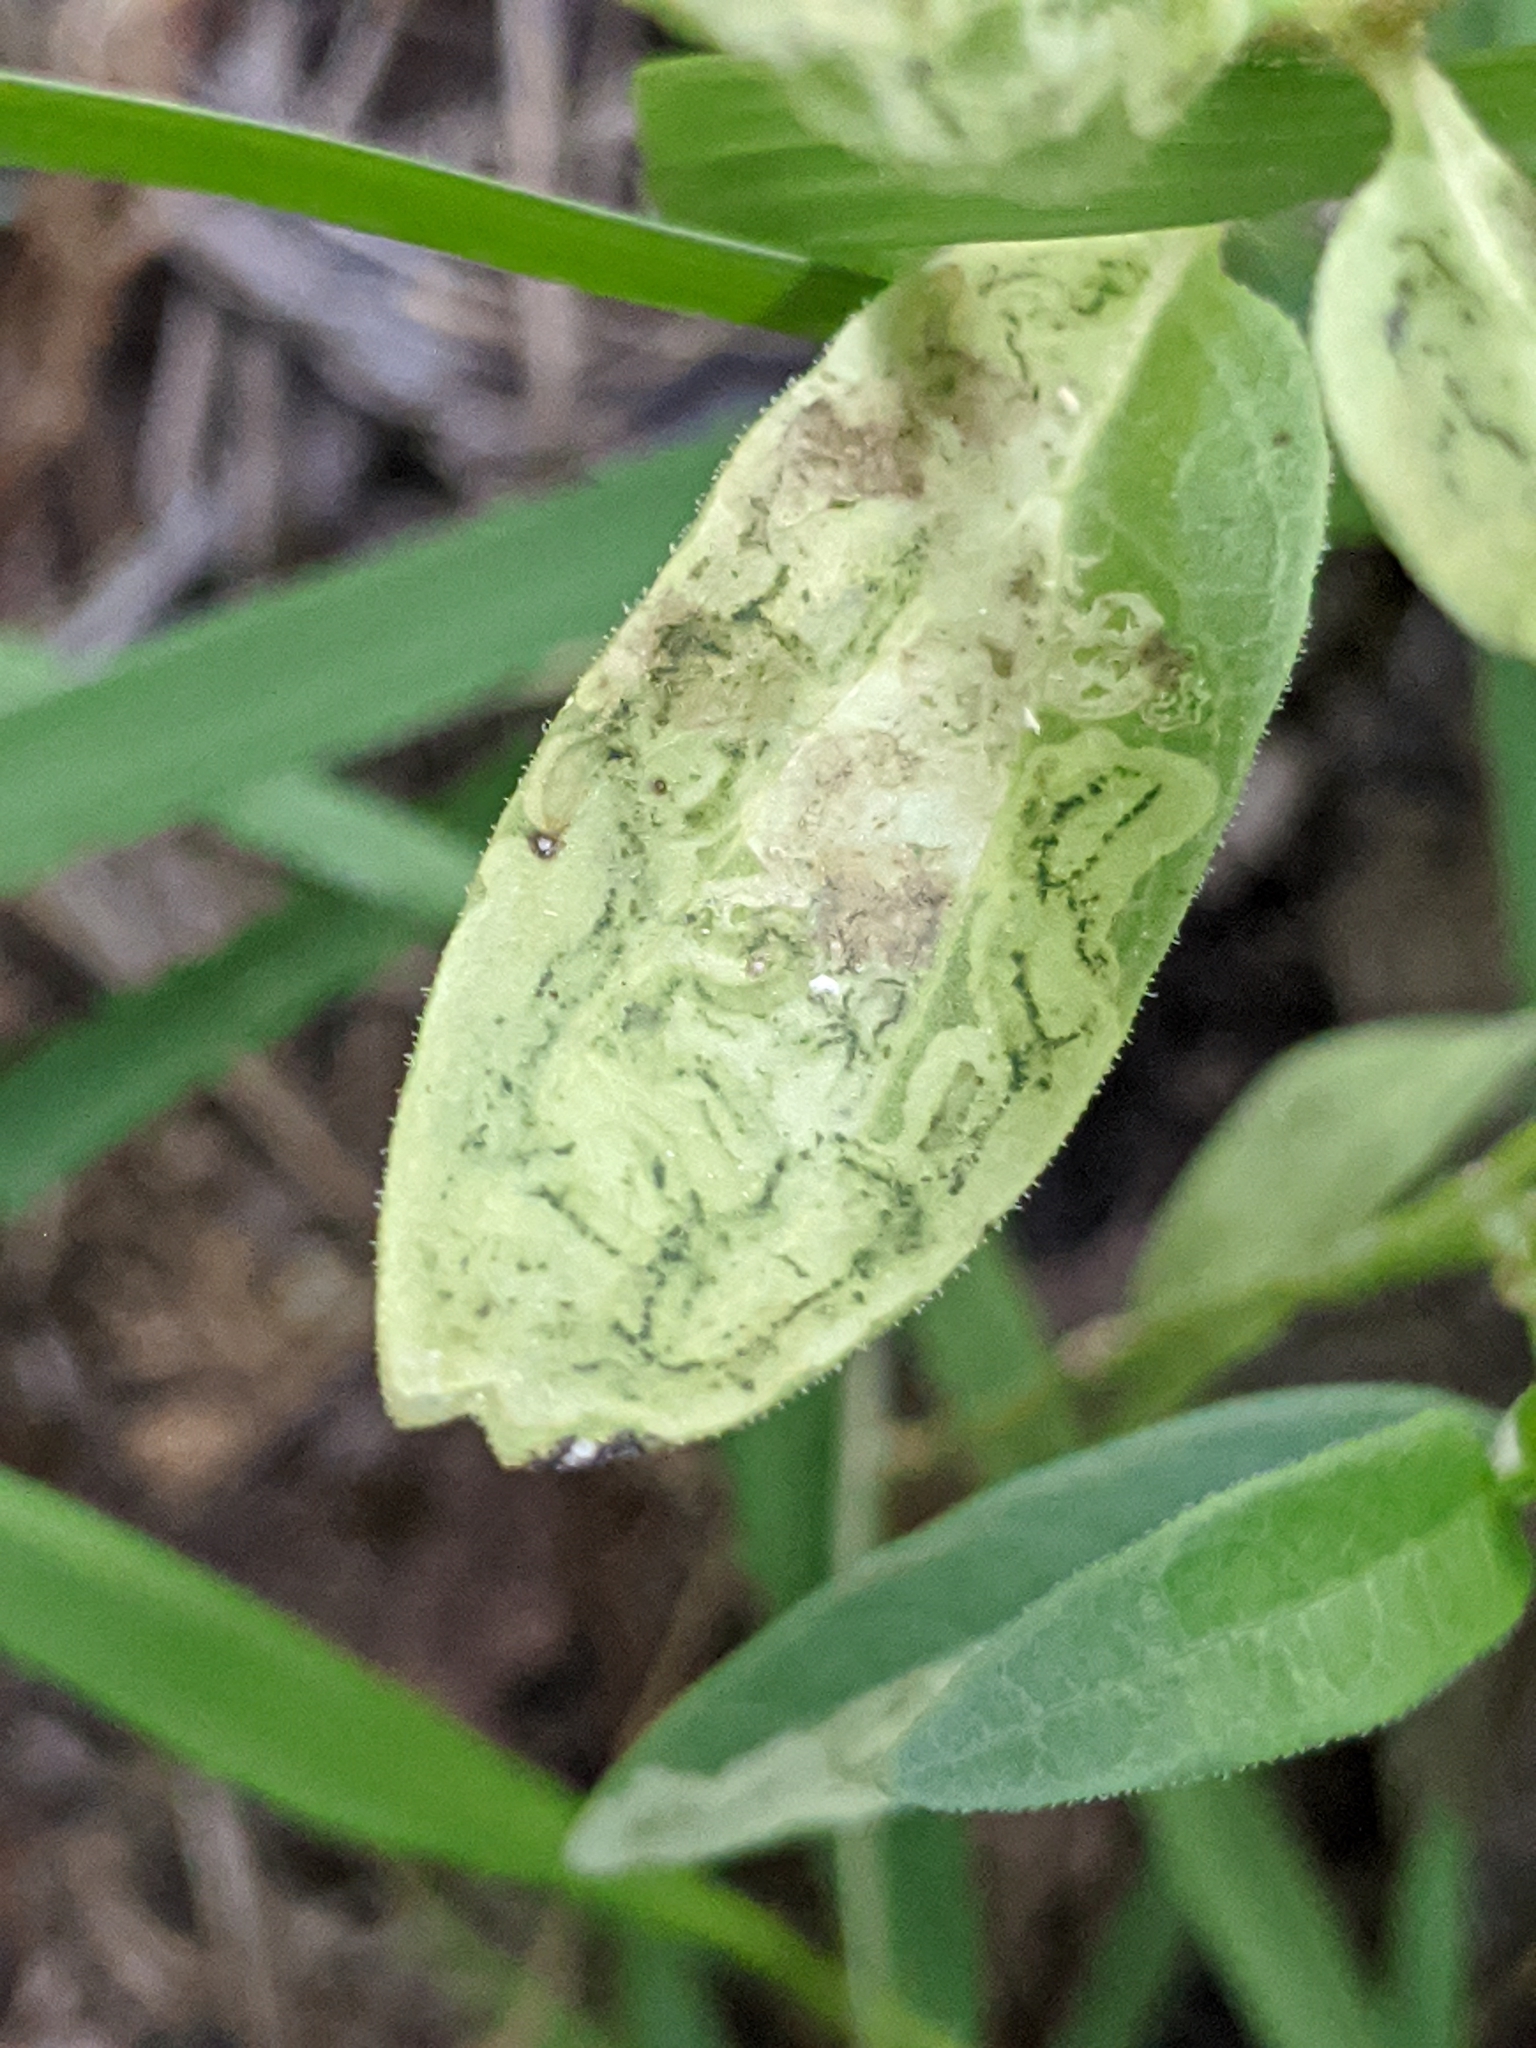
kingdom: Animalia
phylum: Arthropoda
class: Insecta
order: Diptera
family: Agromyzidae
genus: Liriomyza
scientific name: Liriomyza asclepiadis
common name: Milkweed leaf-miner fly
